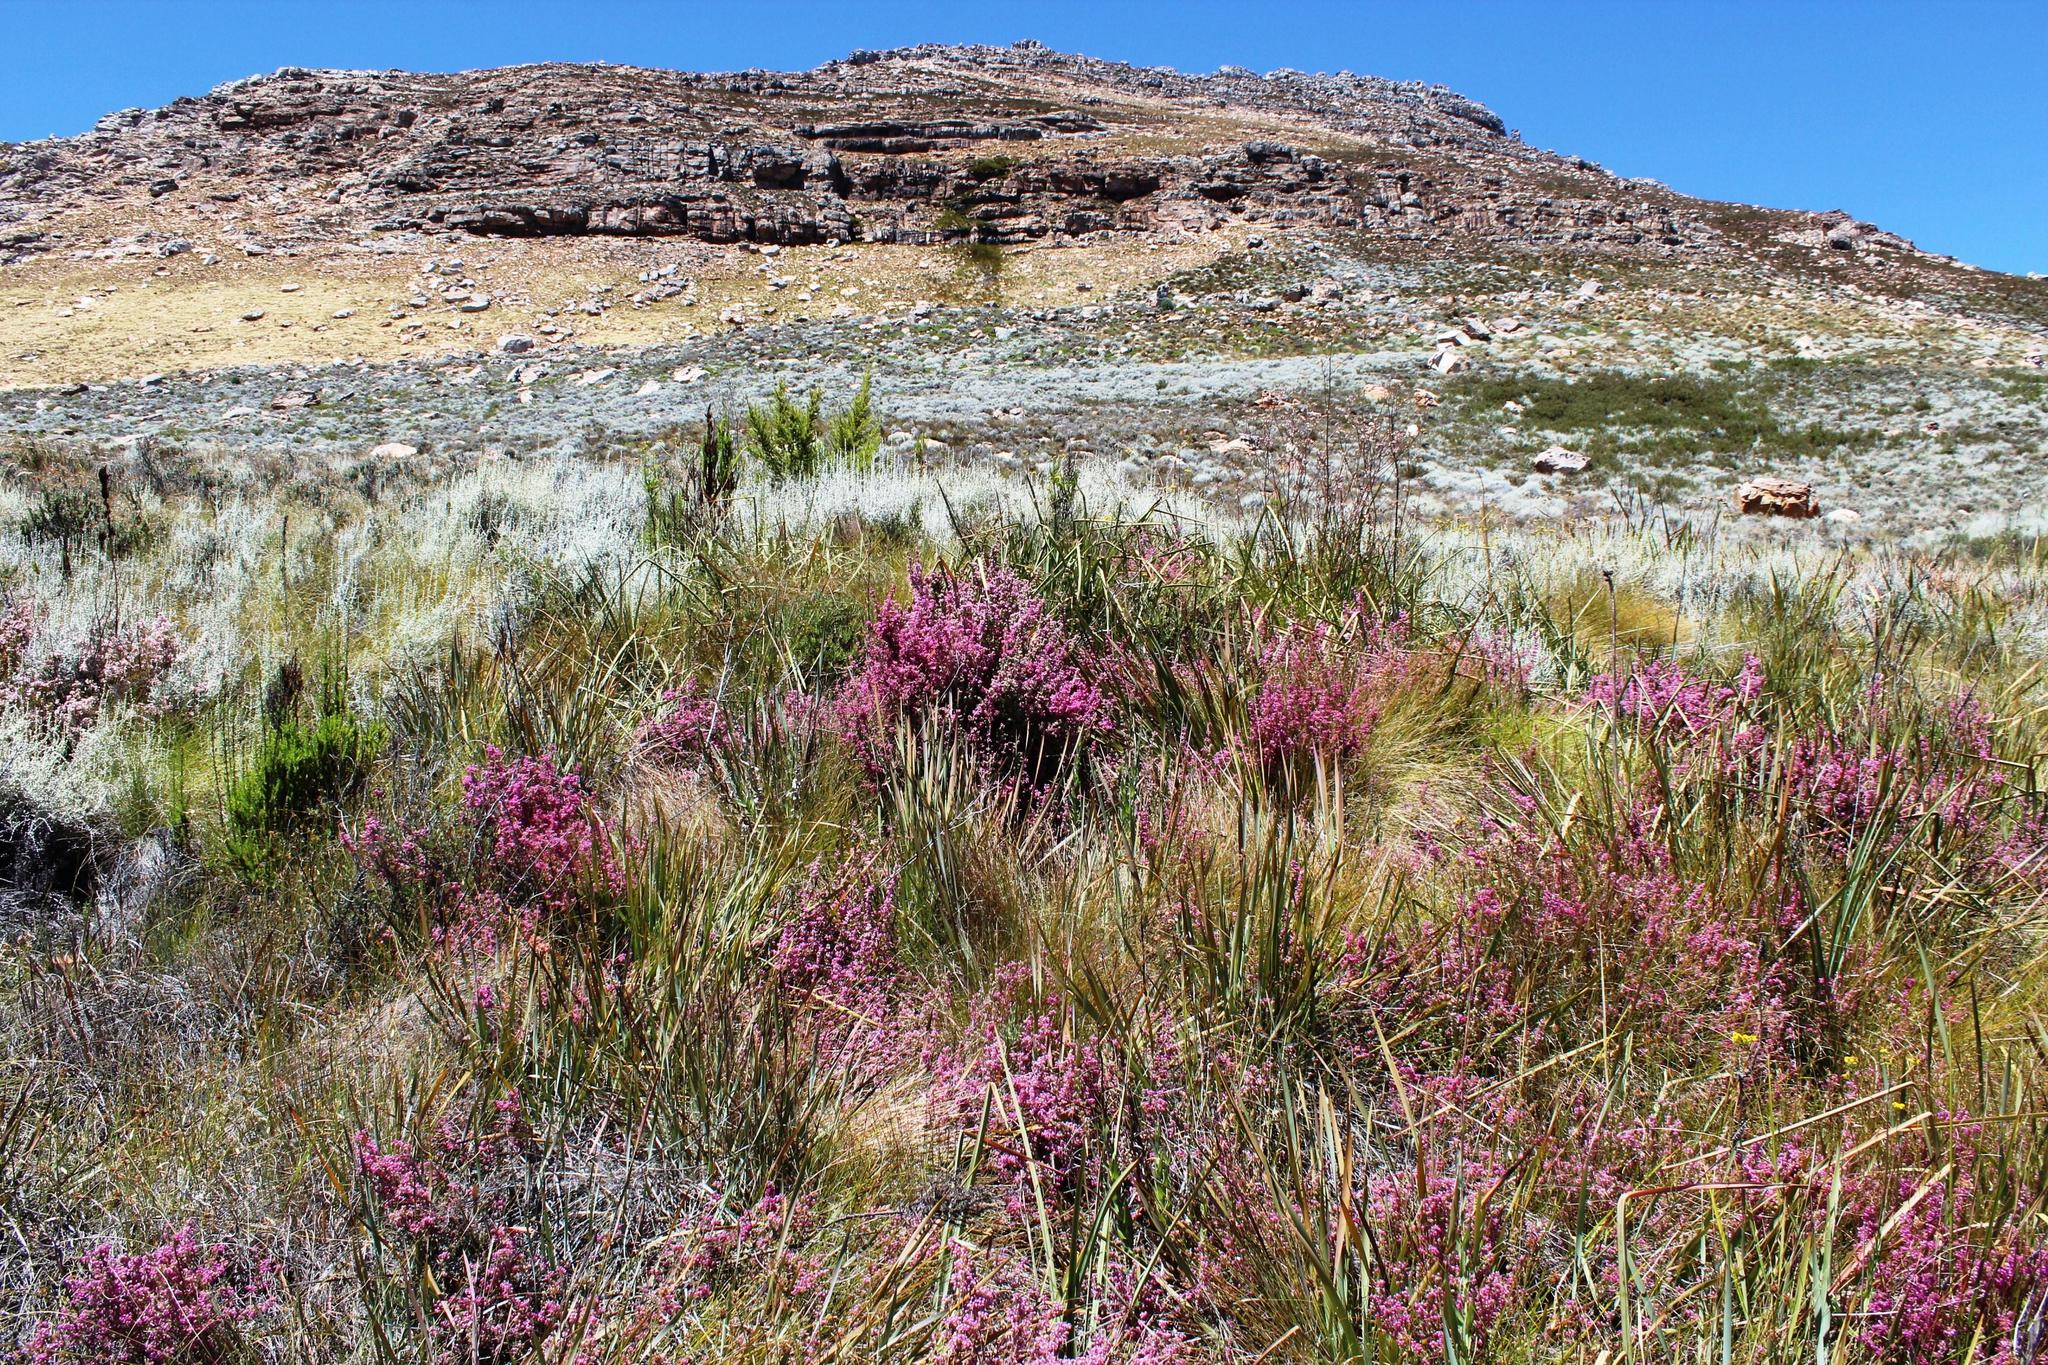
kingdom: Plantae
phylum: Tracheophyta
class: Magnoliopsida
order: Ericales
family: Ericaceae
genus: Erica
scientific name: Erica bergiana
